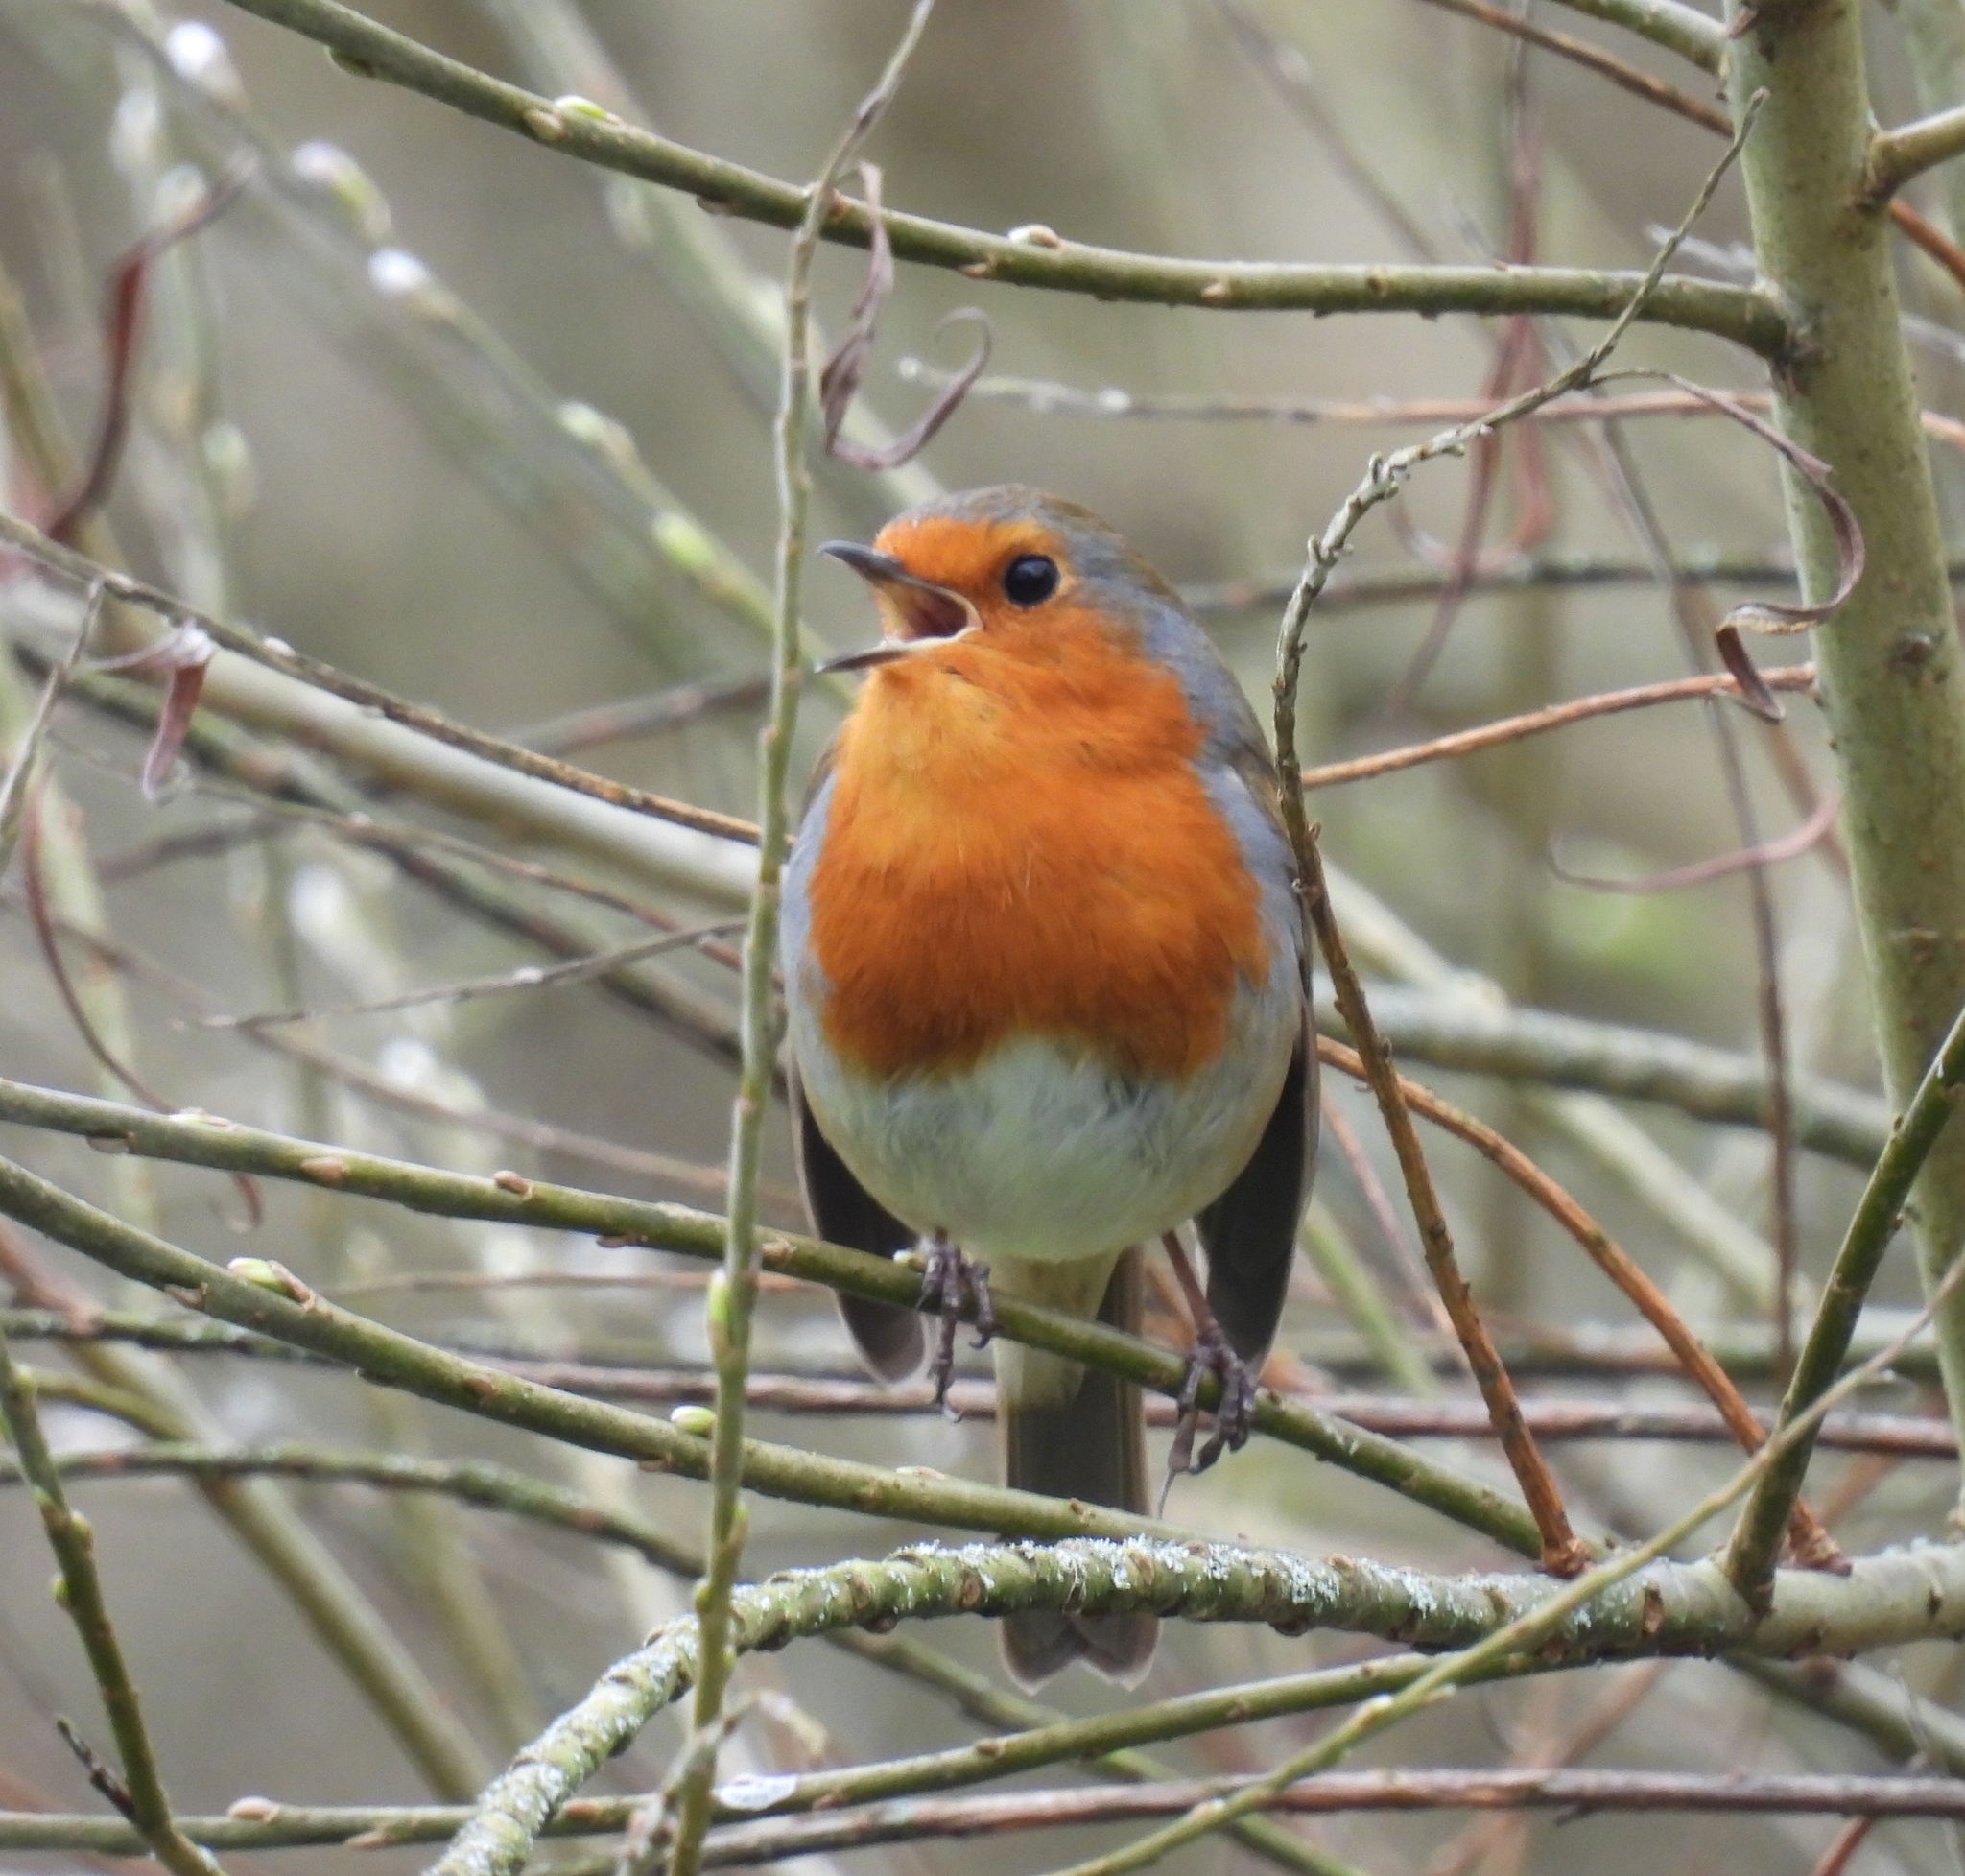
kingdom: Animalia
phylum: Chordata
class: Aves
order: Passeriformes
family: Muscicapidae
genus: Erithacus
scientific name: Erithacus rubecula
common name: European robin
